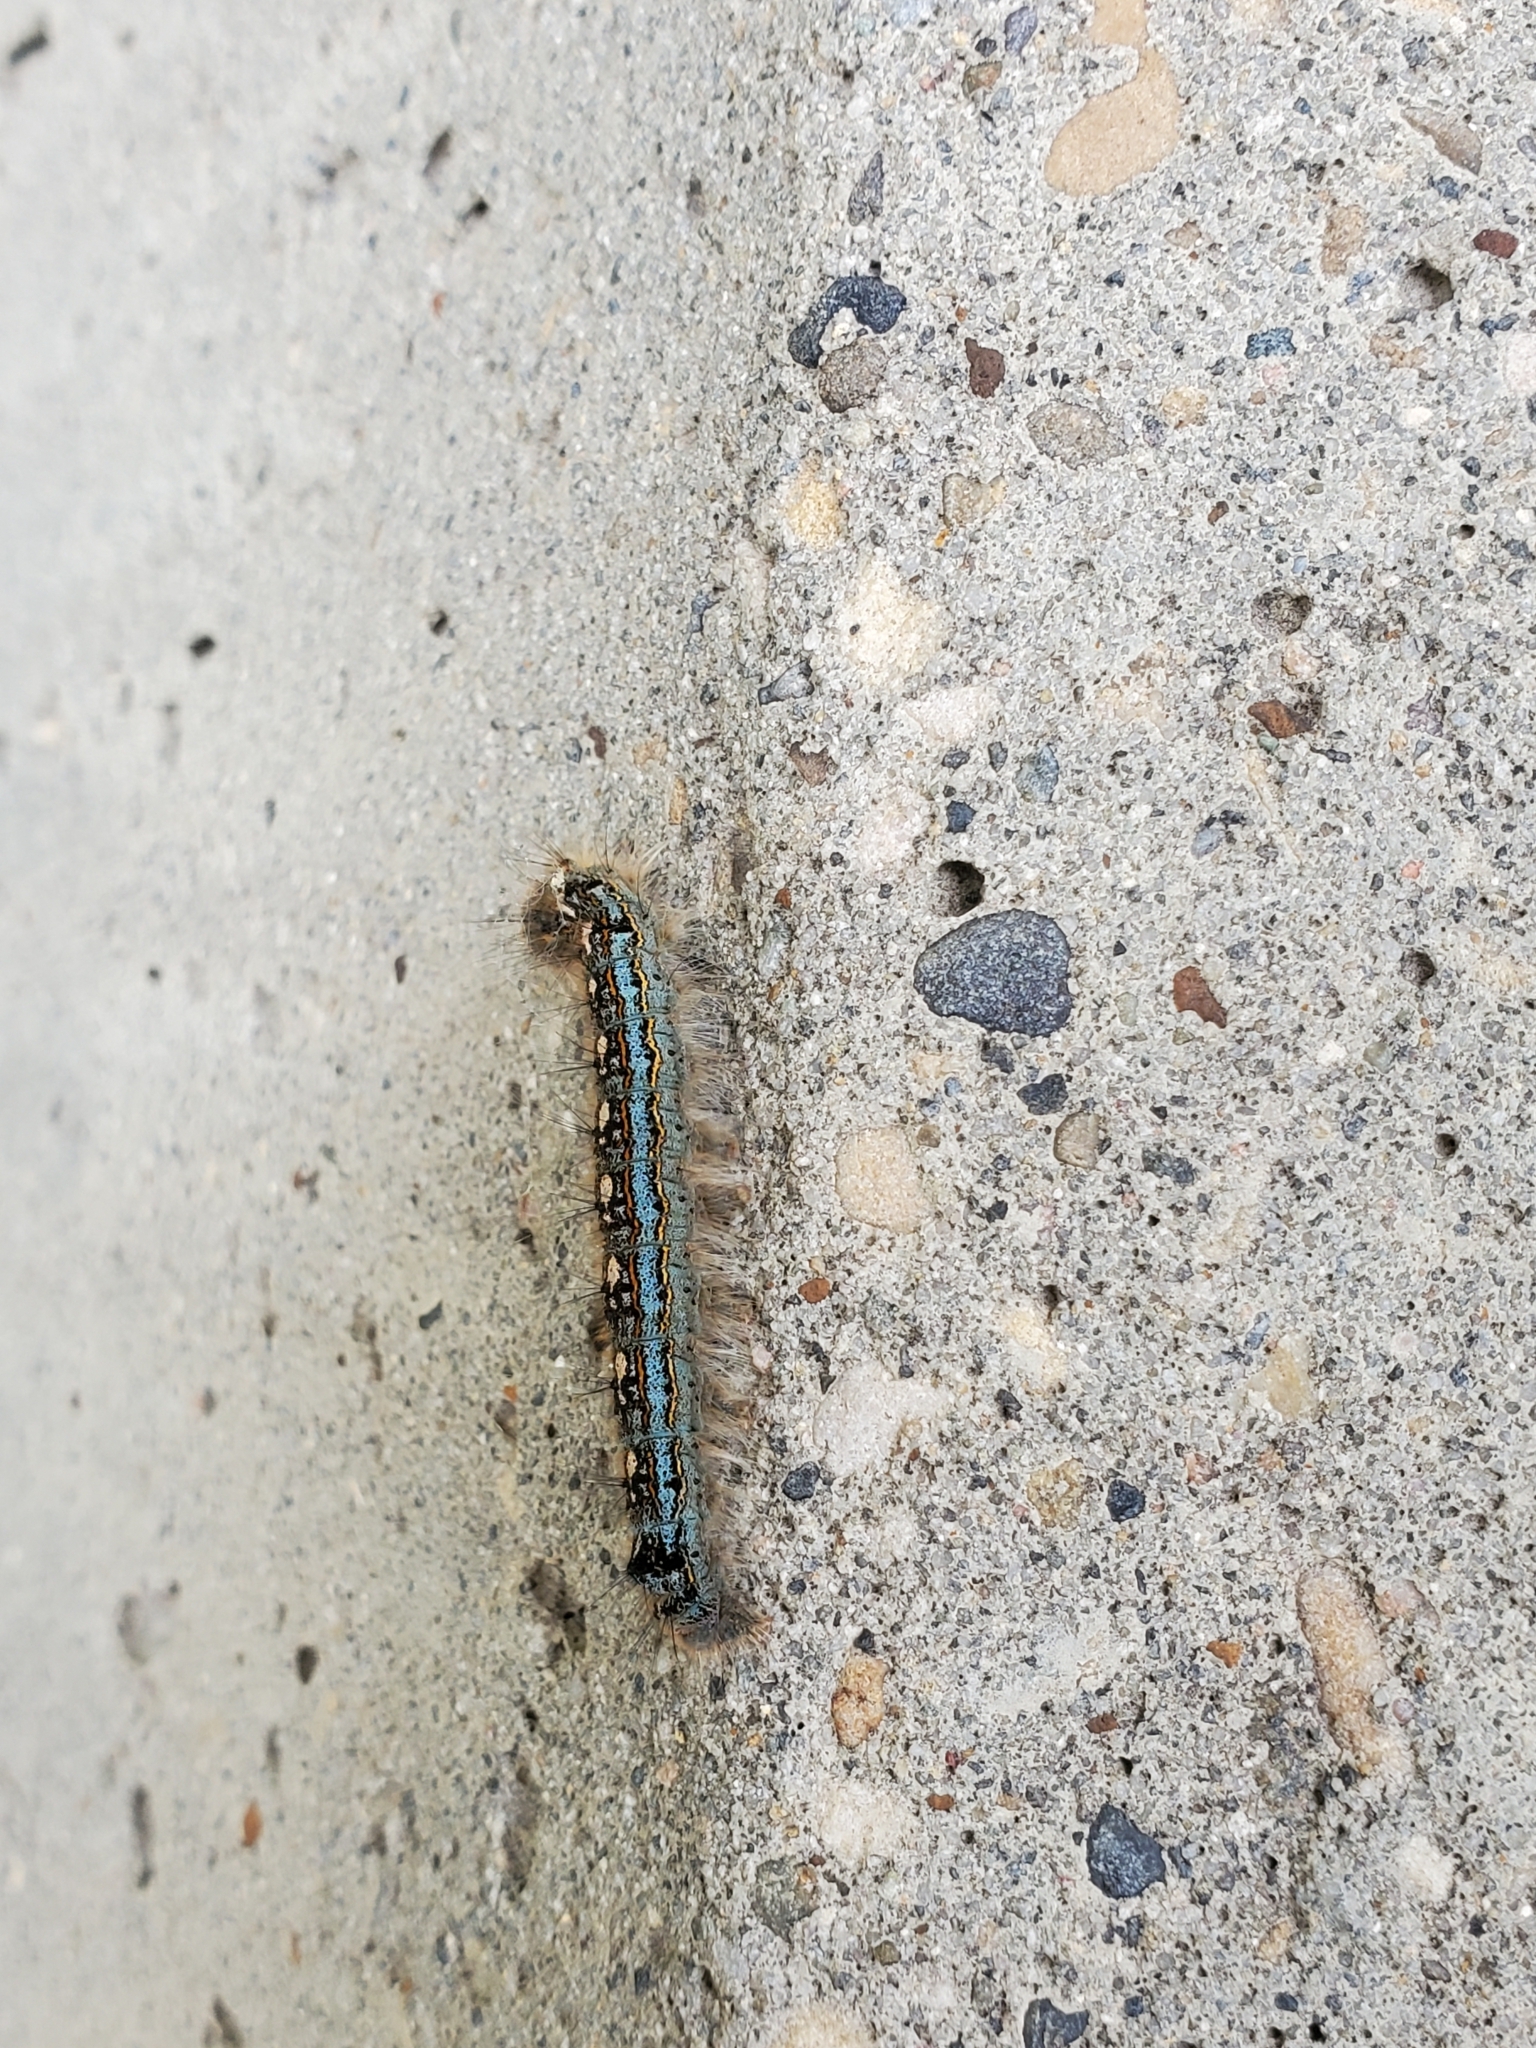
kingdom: Animalia
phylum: Arthropoda
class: Insecta
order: Lepidoptera
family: Lasiocampidae
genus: Malacosoma
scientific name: Malacosoma disstria
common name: Forest tent caterpillar
